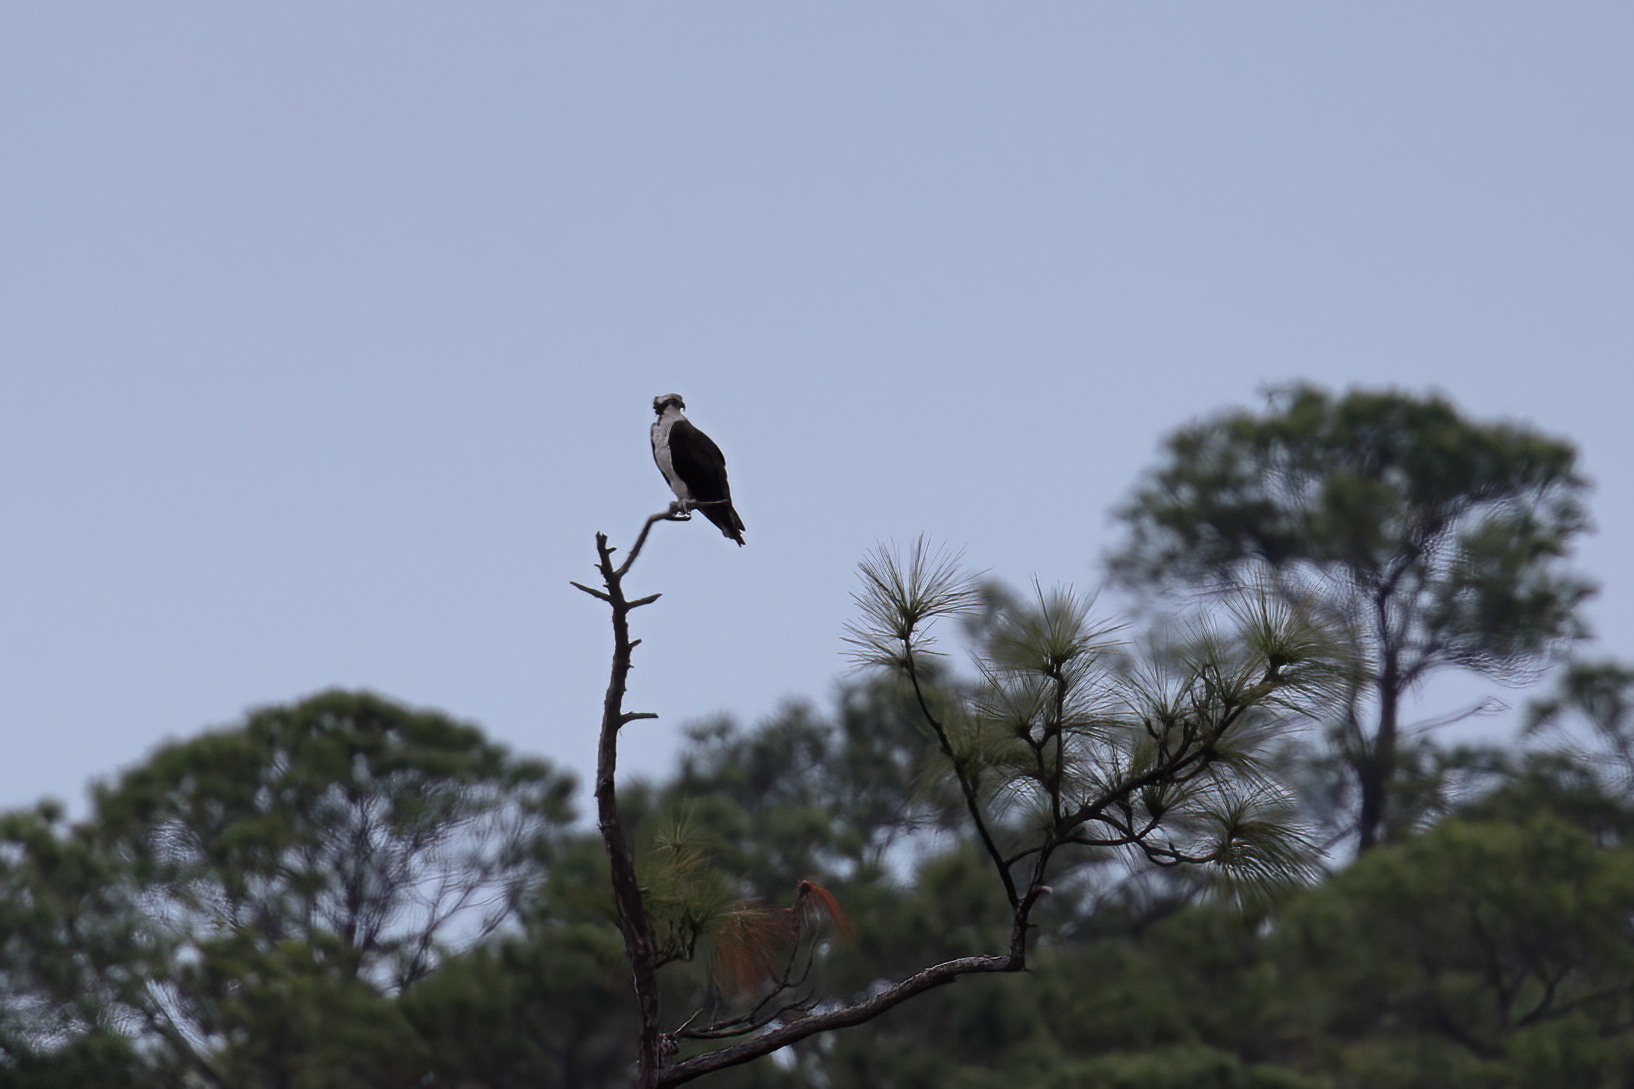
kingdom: Animalia
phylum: Chordata
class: Aves
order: Accipitriformes
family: Pandionidae
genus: Pandion
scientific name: Pandion haliaetus
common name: Osprey
